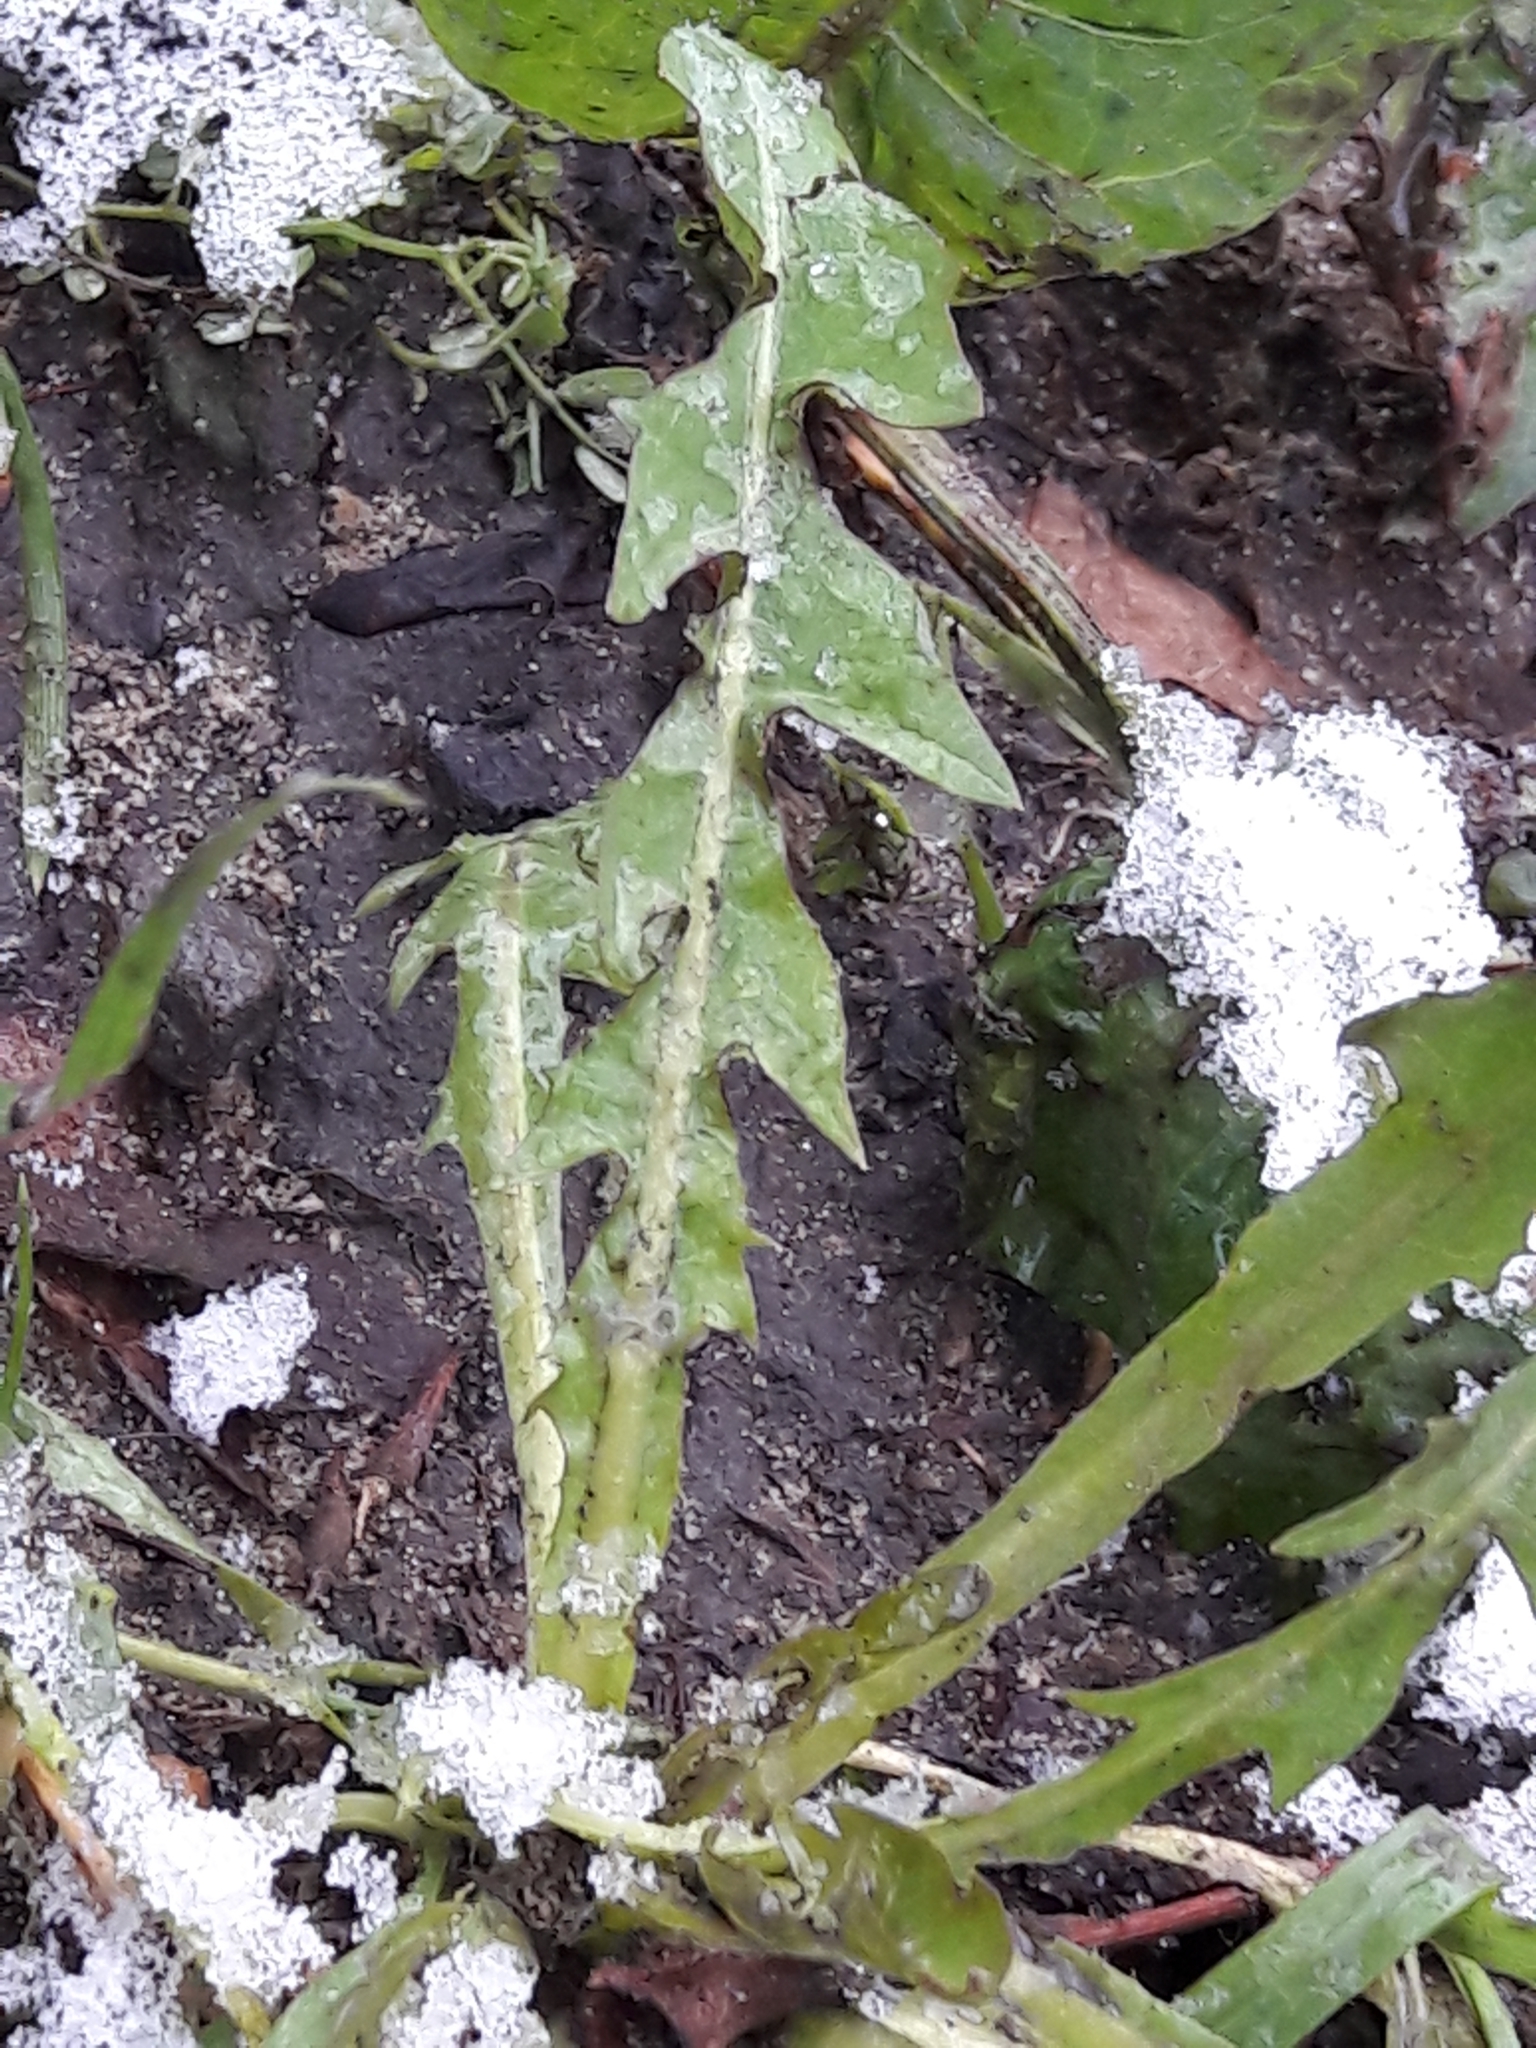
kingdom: Plantae
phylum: Tracheophyta
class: Magnoliopsida
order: Asterales
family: Asteraceae
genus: Taraxacum
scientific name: Taraxacum officinale
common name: Common dandelion
